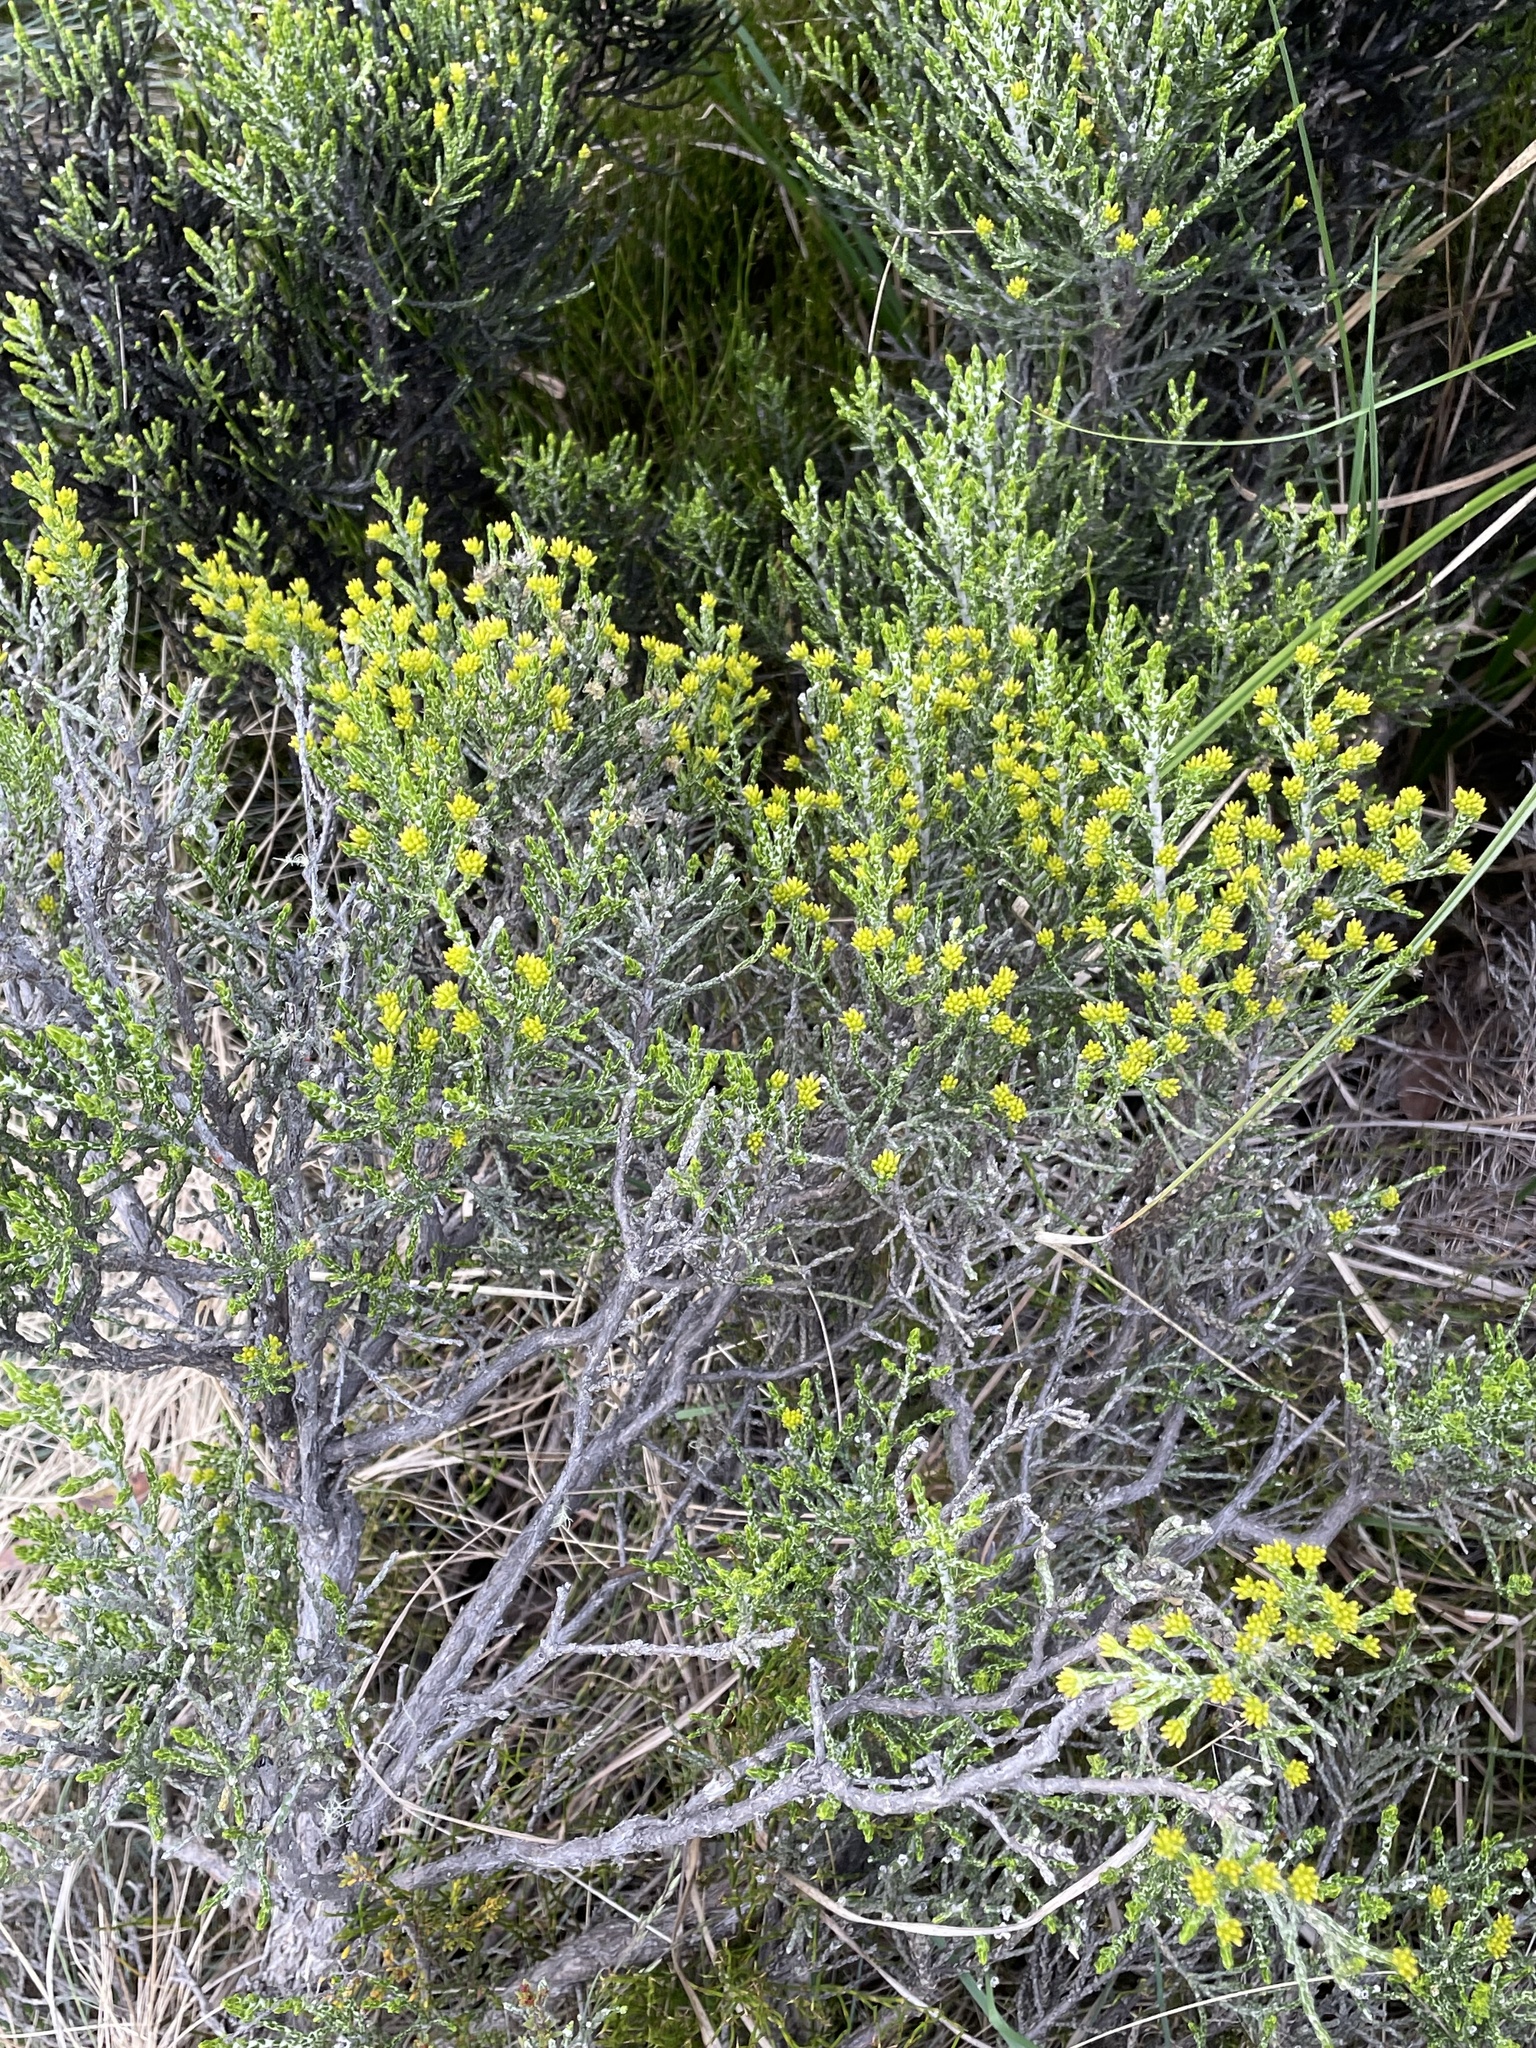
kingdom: Plantae
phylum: Tracheophyta
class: Magnoliopsida
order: Asterales
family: Asteraceae
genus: Ozothamnus
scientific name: Ozothamnus cupressoides
